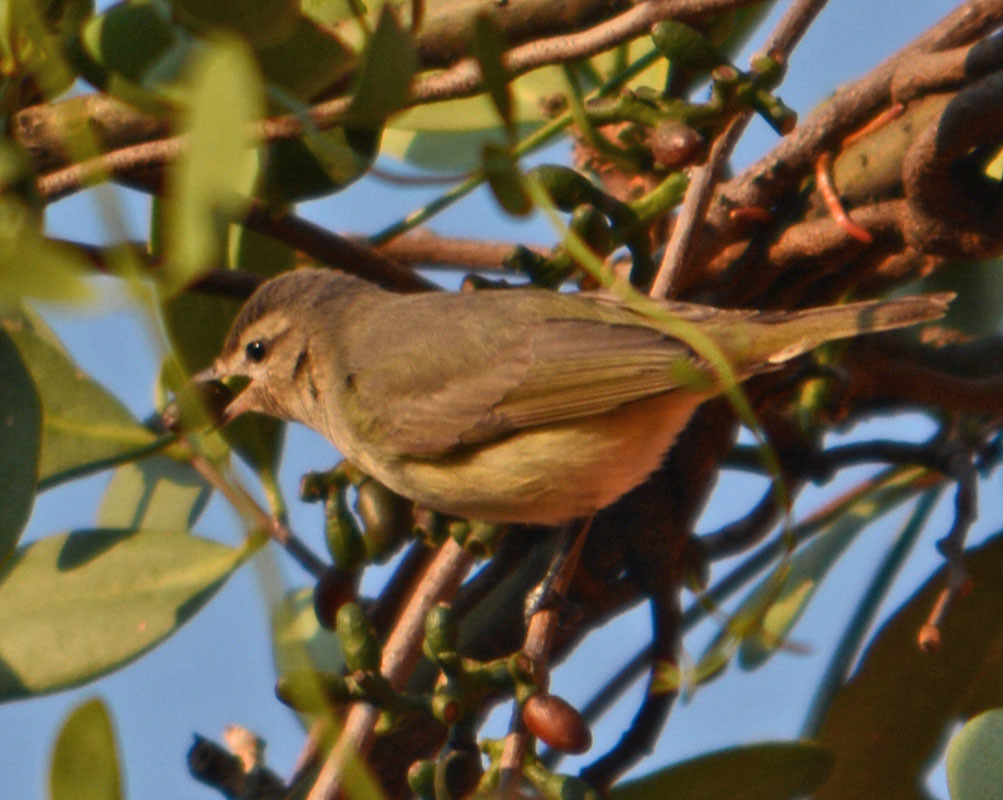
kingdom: Animalia
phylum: Chordata
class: Aves
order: Passeriformes
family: Vireonidae
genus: Vireo
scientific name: Vireo gilvus
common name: Warbling vireo
